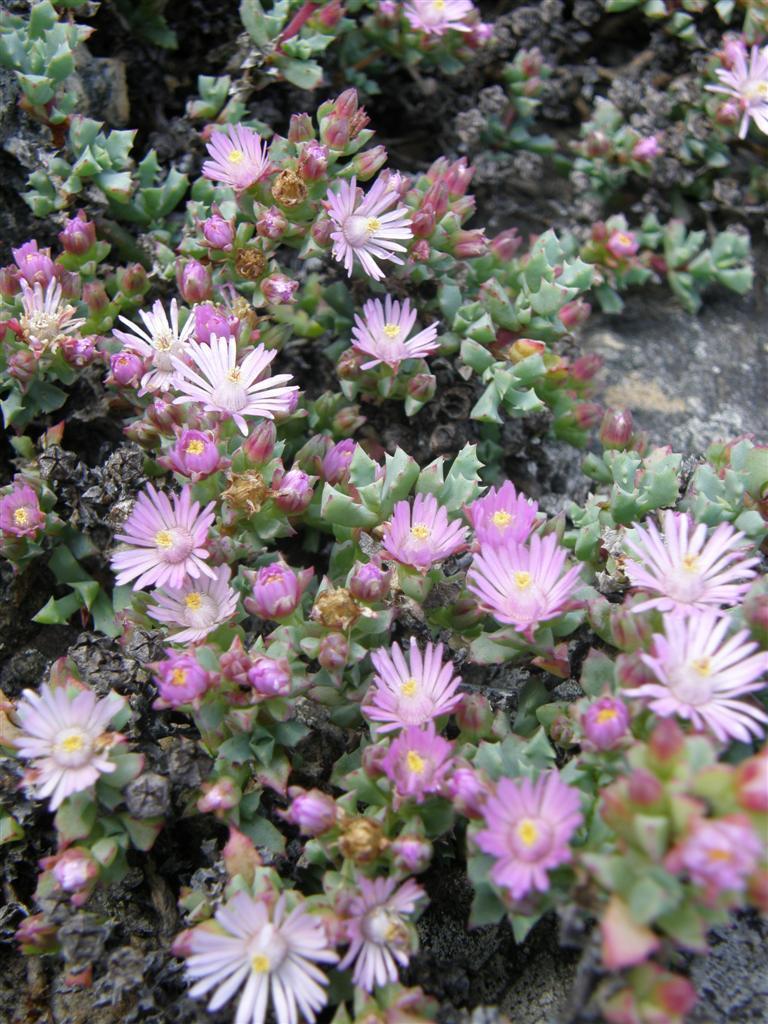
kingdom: Plantae
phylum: Tracheophyta
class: Magnoliopsida
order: Caryophyllales
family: Aizoaceae
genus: Oscularia
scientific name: Oscularia deltoides
